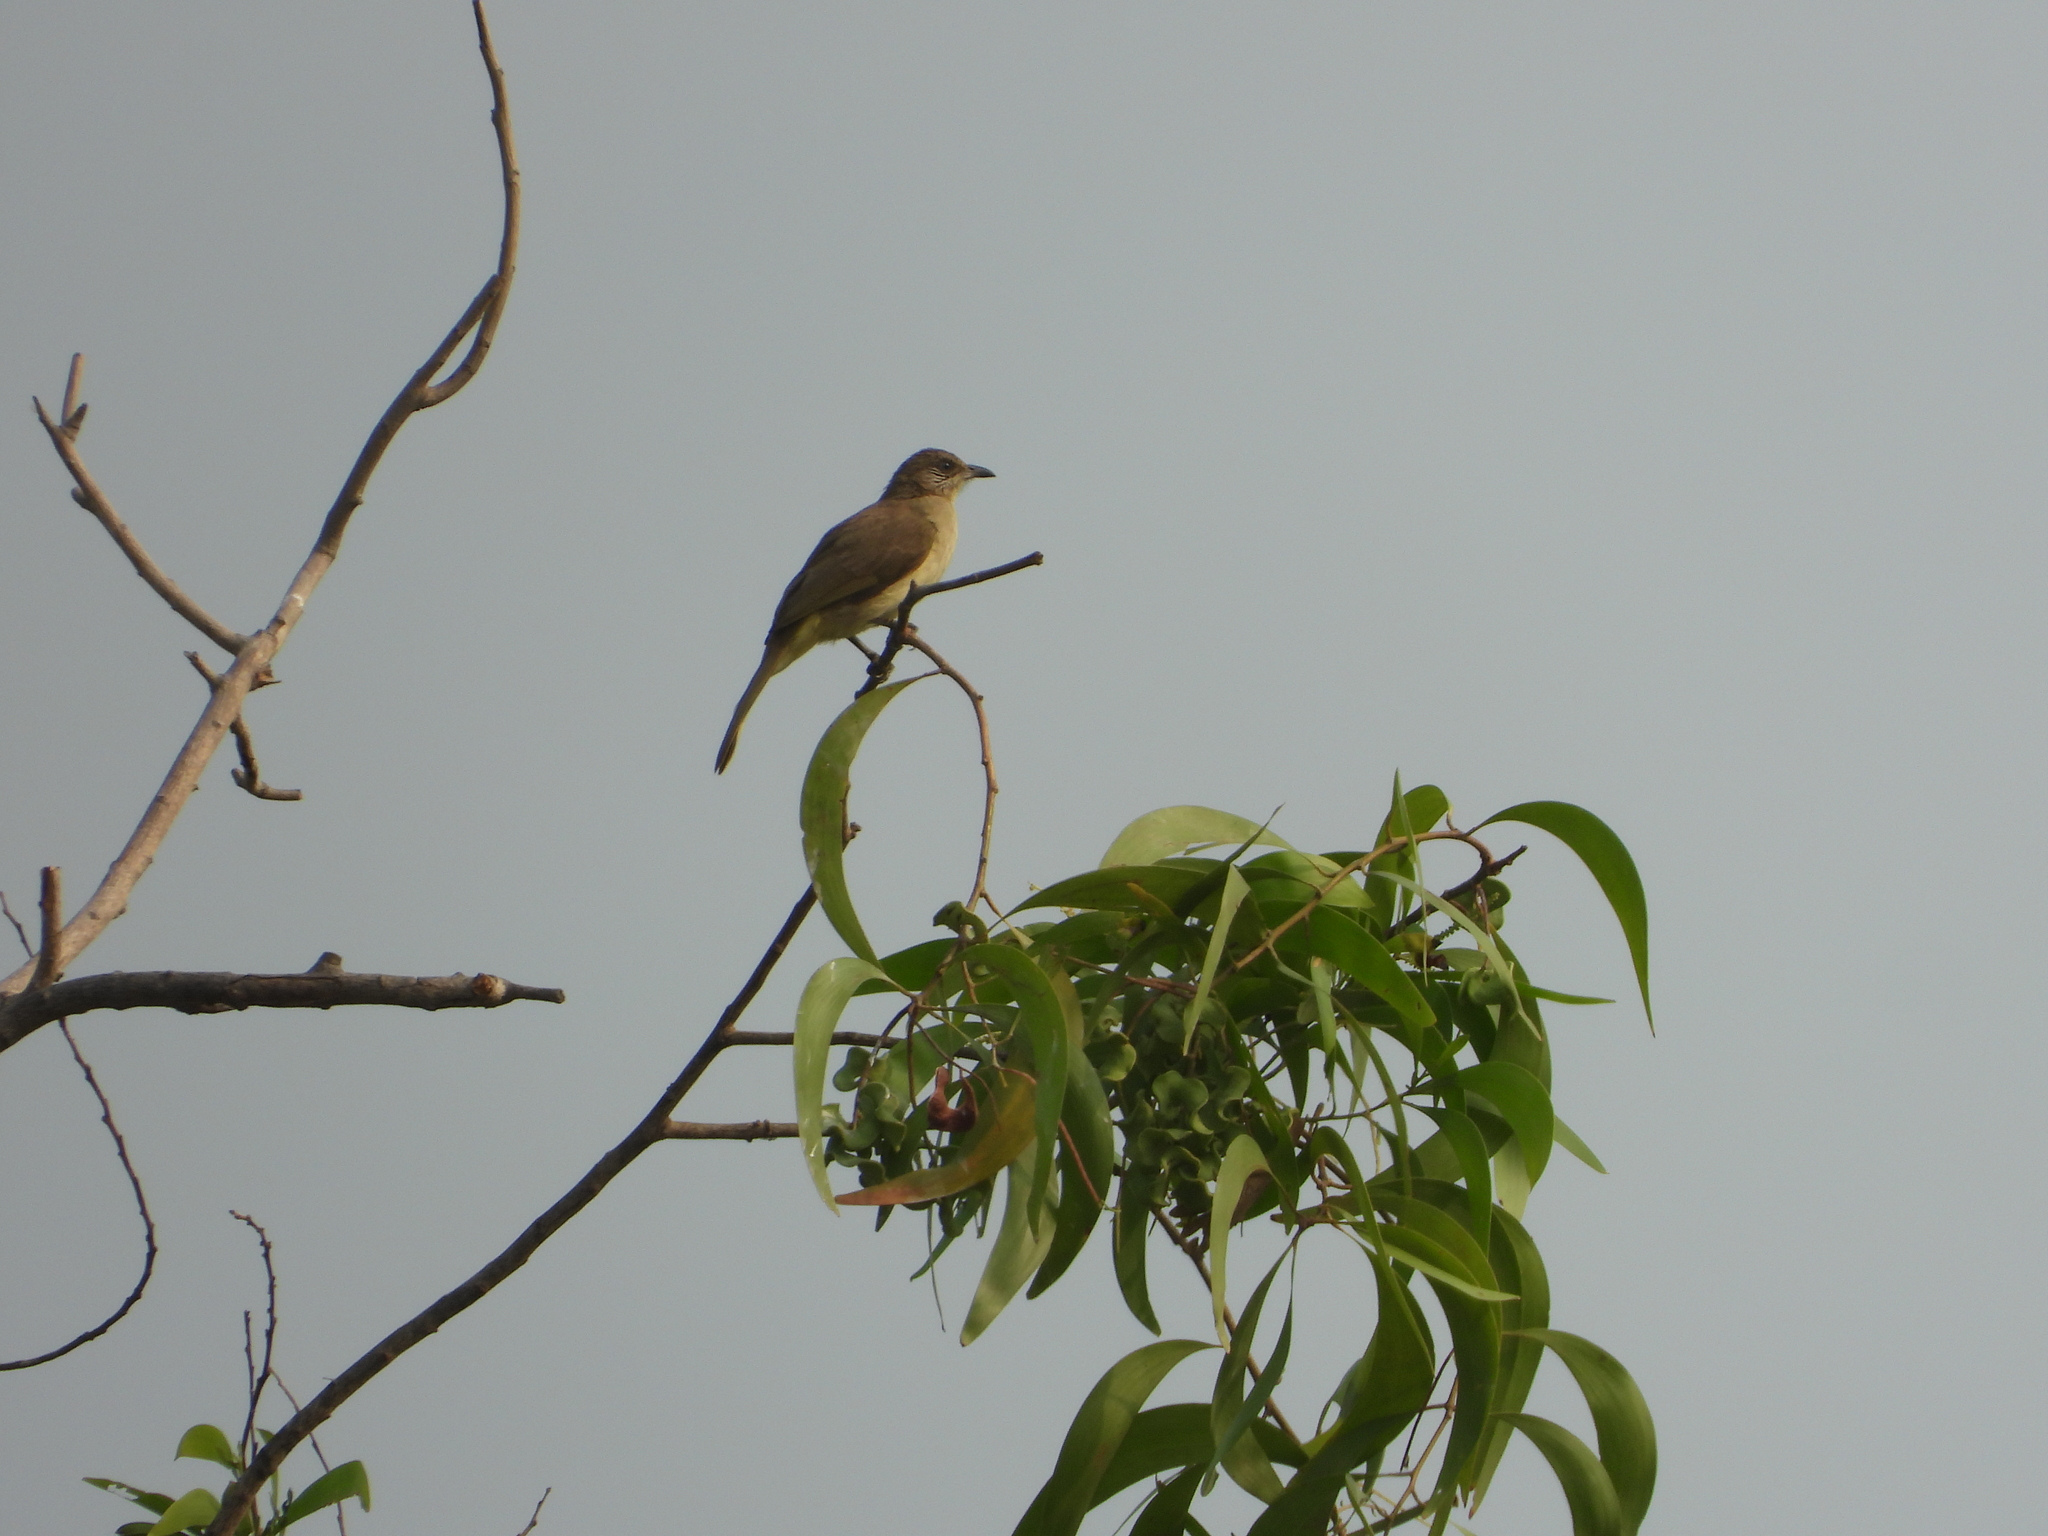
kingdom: Animalia
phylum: Chordata
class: Aves
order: Passeriformes
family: Pycnonotidae
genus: Pycnonotus
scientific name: Pycnonotus blanfordi
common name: Streak-eared bulbul
